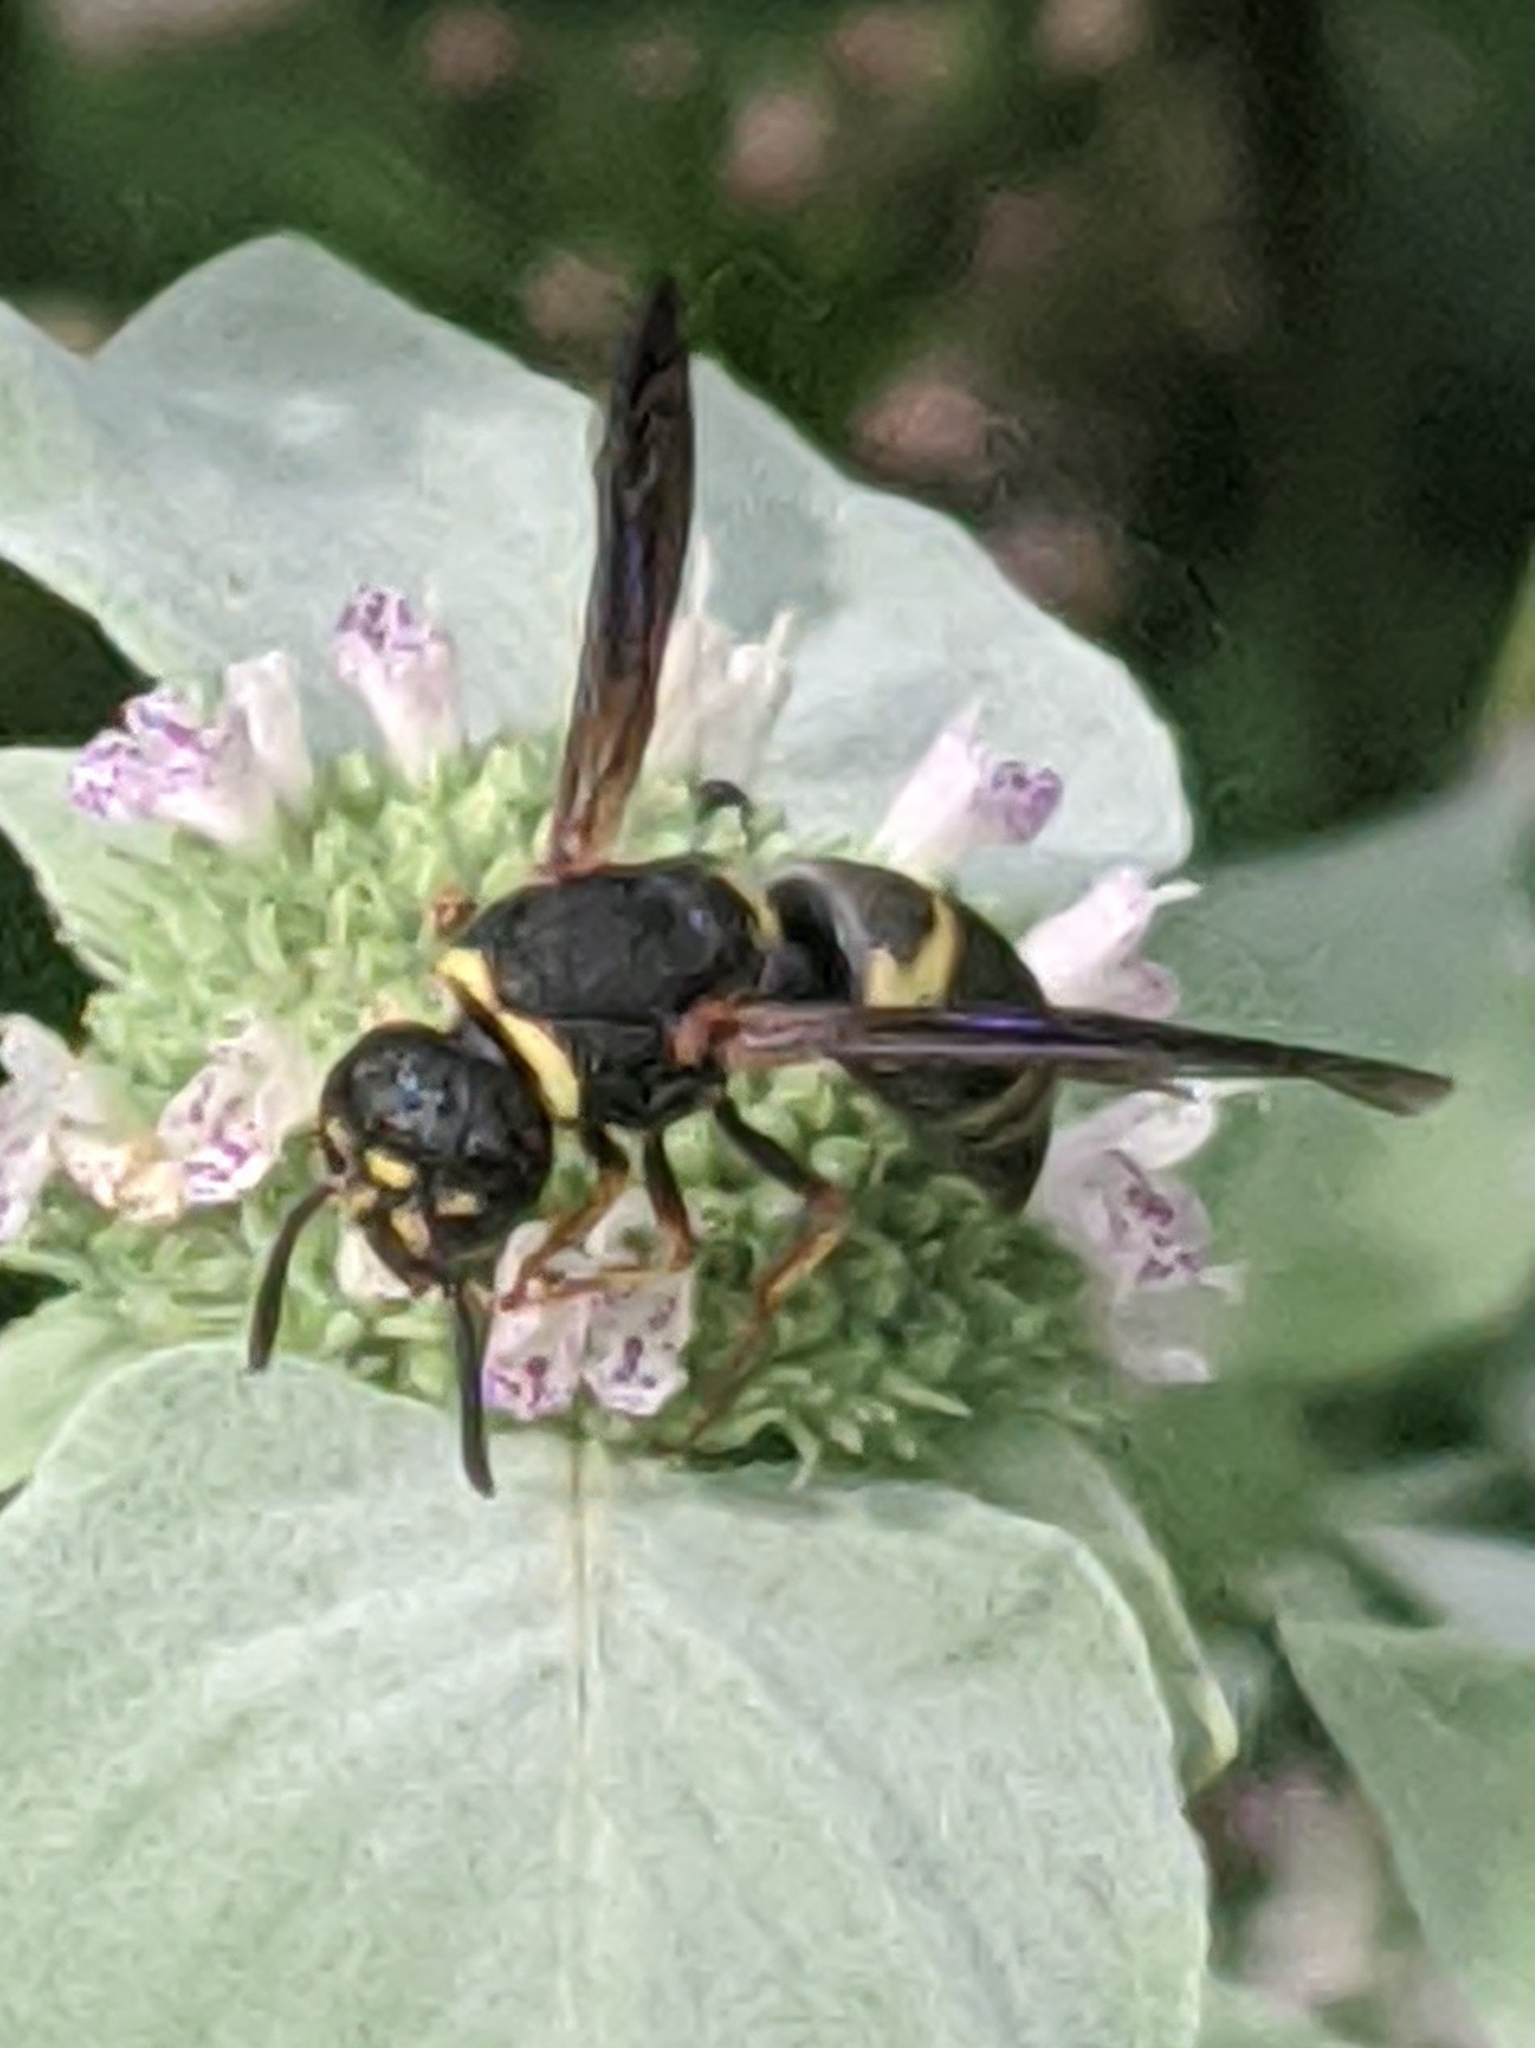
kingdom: Animalia
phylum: Arthropoda
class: Insecta
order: Hymenoptera
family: Eumenidae
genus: Euodynerus
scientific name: Euodynerus hidalgo
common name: Wasp
